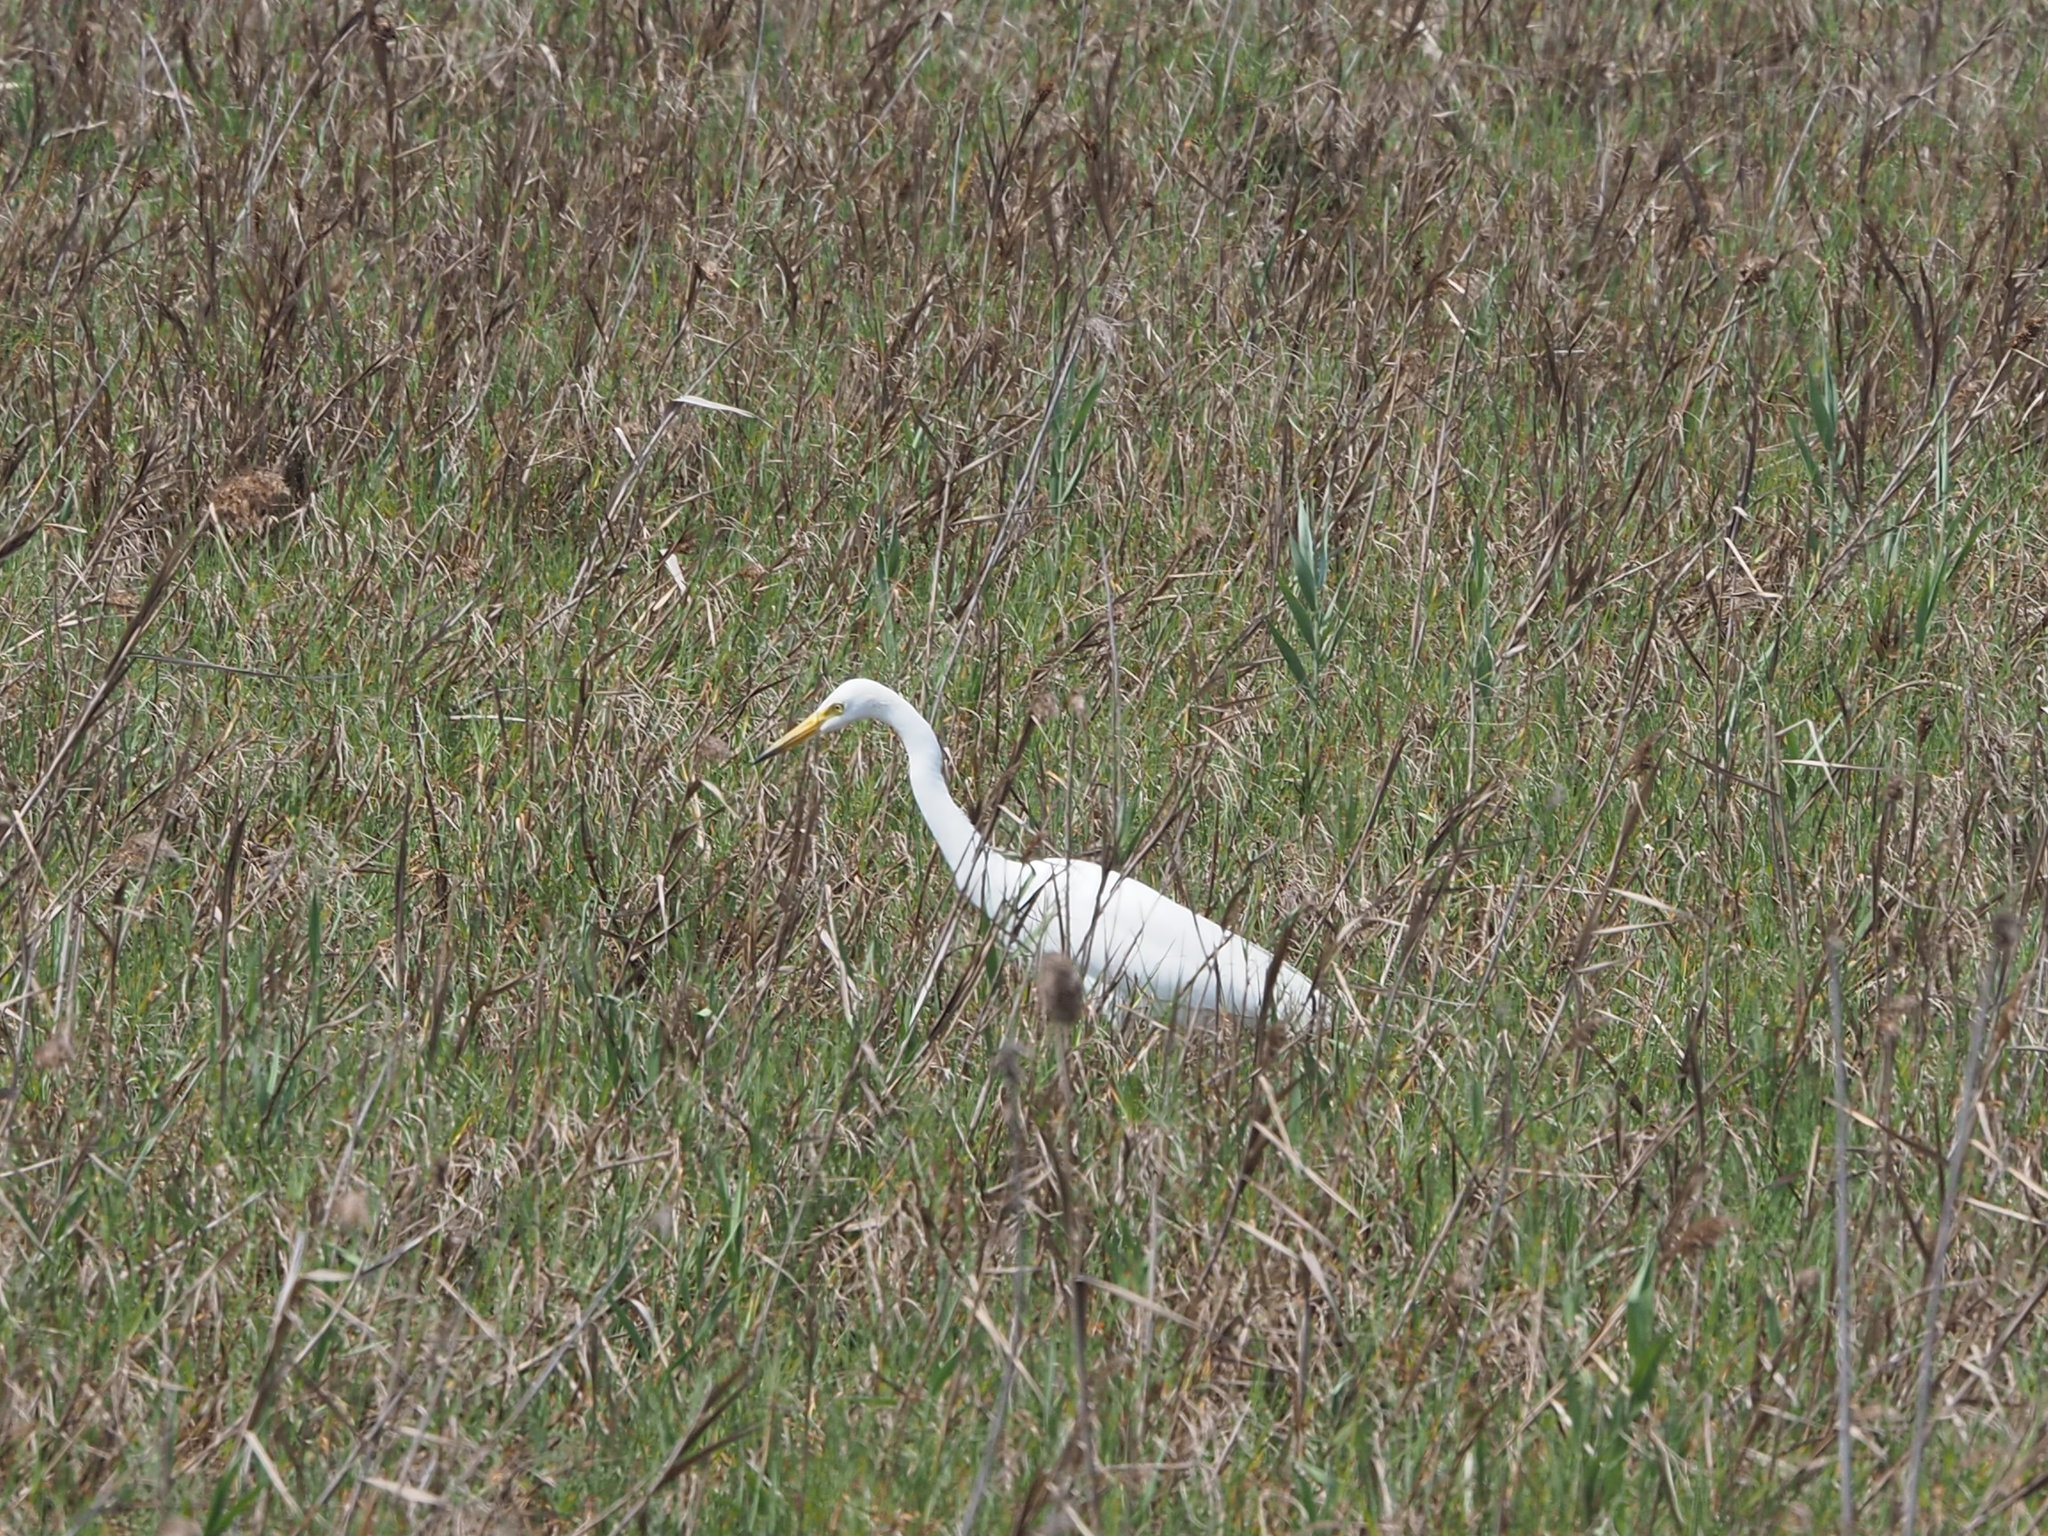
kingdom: Animalia
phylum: Chordata
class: Aves
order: Pelecaniformes
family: Ardeidae
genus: Egretta
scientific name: Egretta intermedia
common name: Intermediate egret
